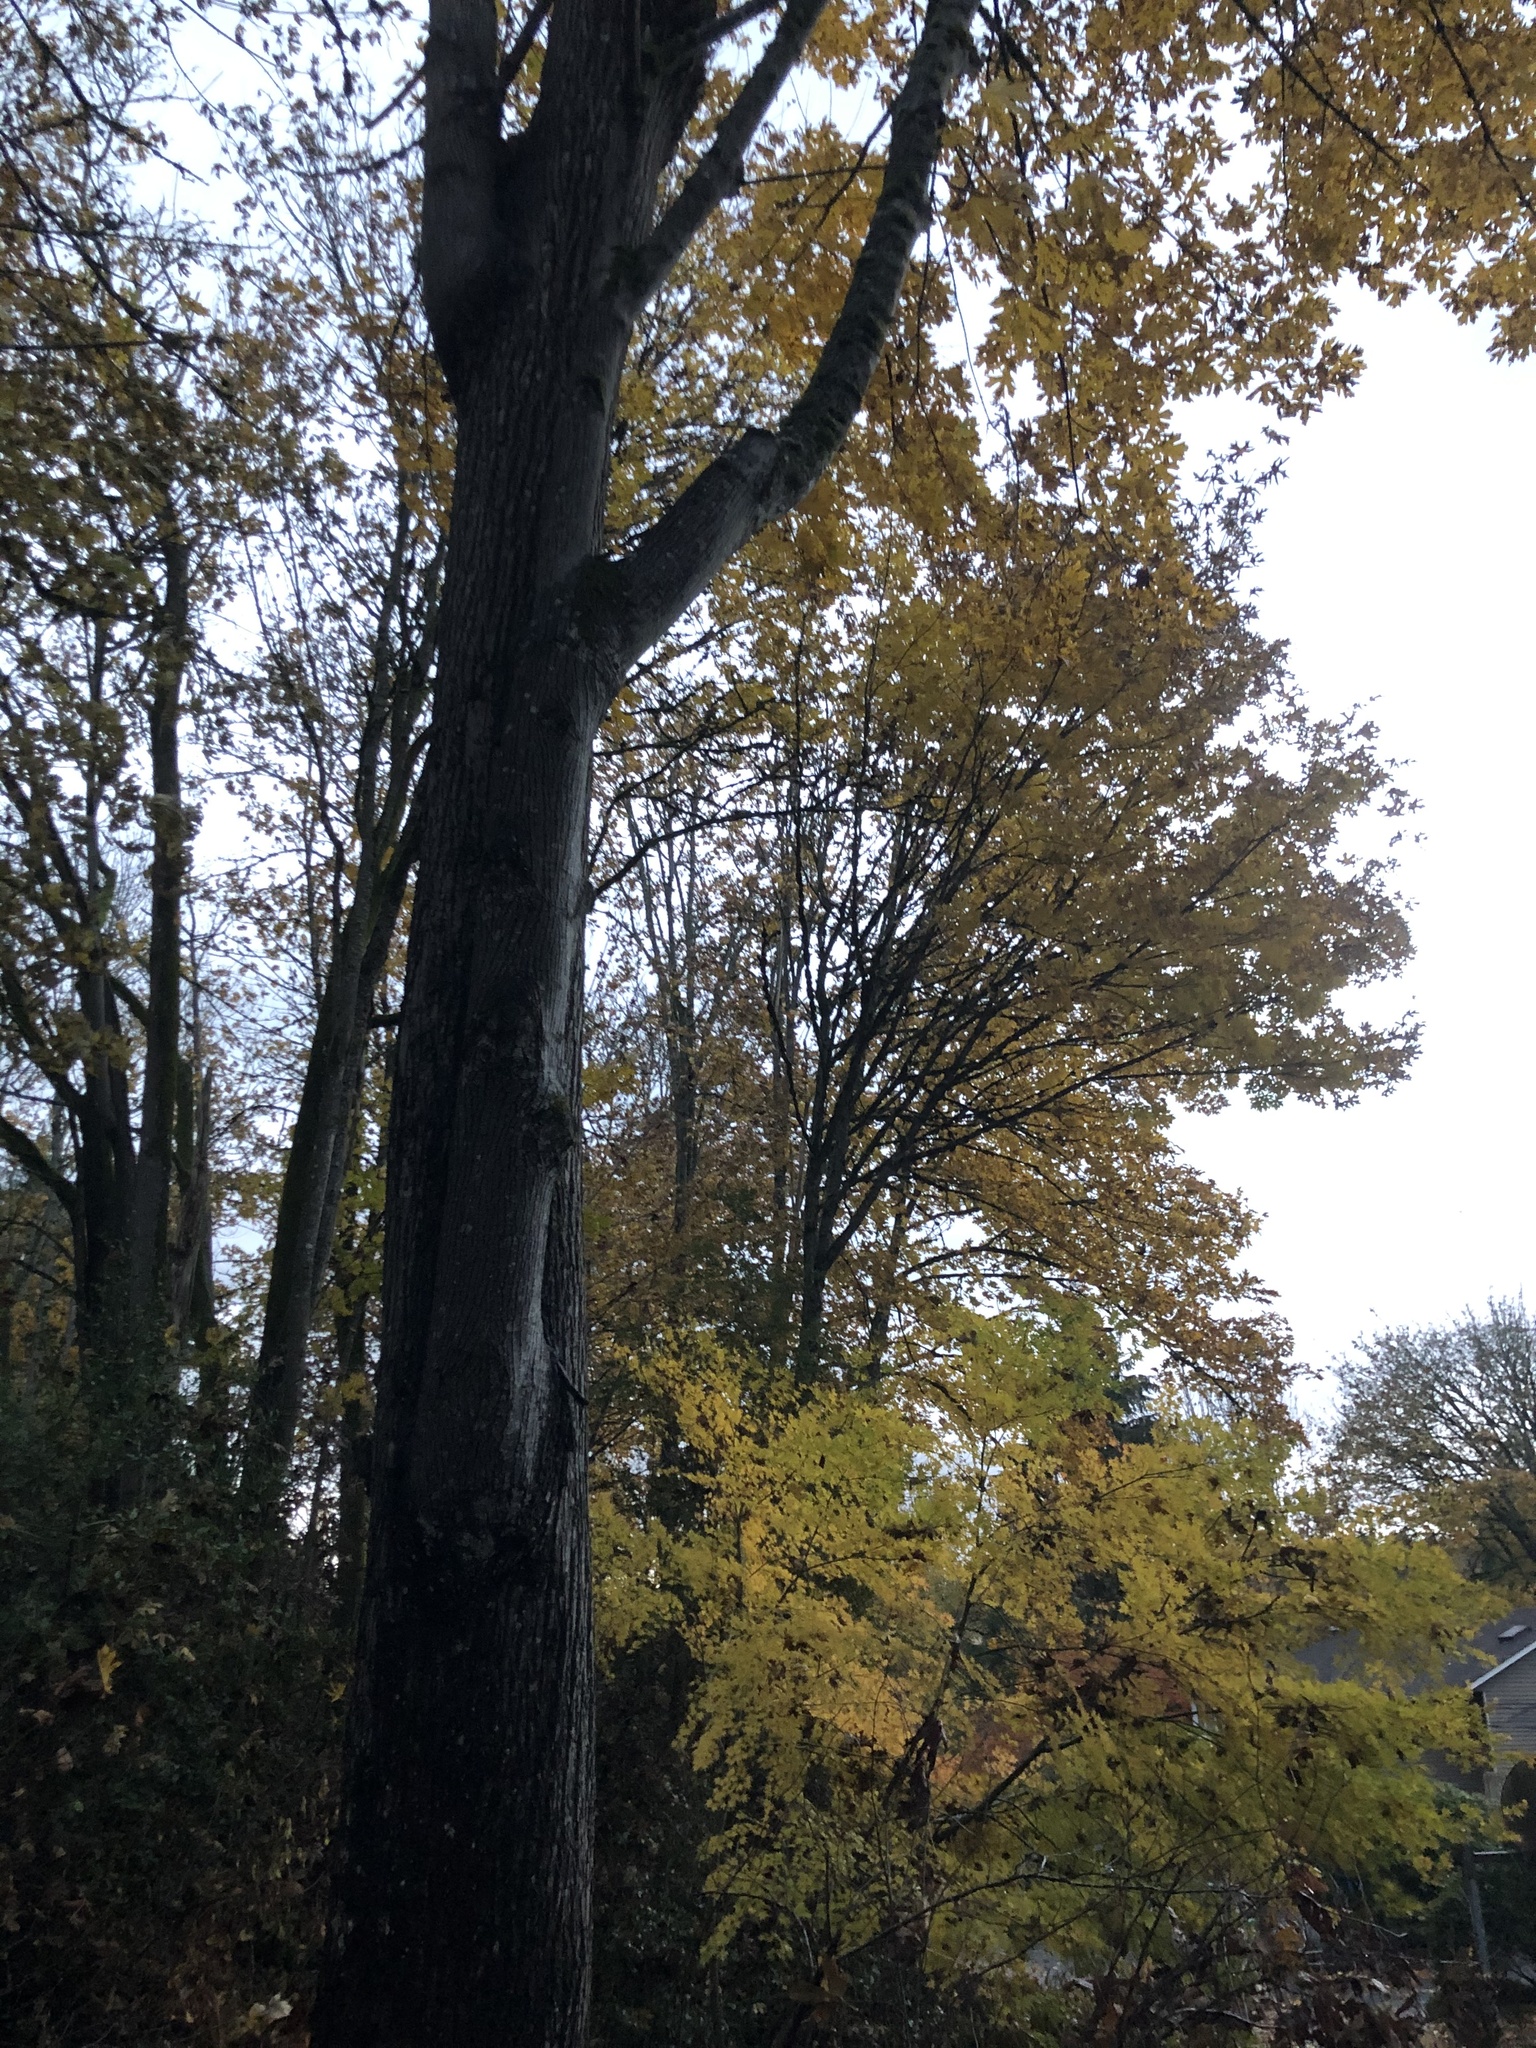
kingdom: Plantae
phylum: Tracheophyta
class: Magnoliopsida
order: Sapindales
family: Sapindaceae
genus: Acer
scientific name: Acer macrophyllum
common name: Oregon maple
